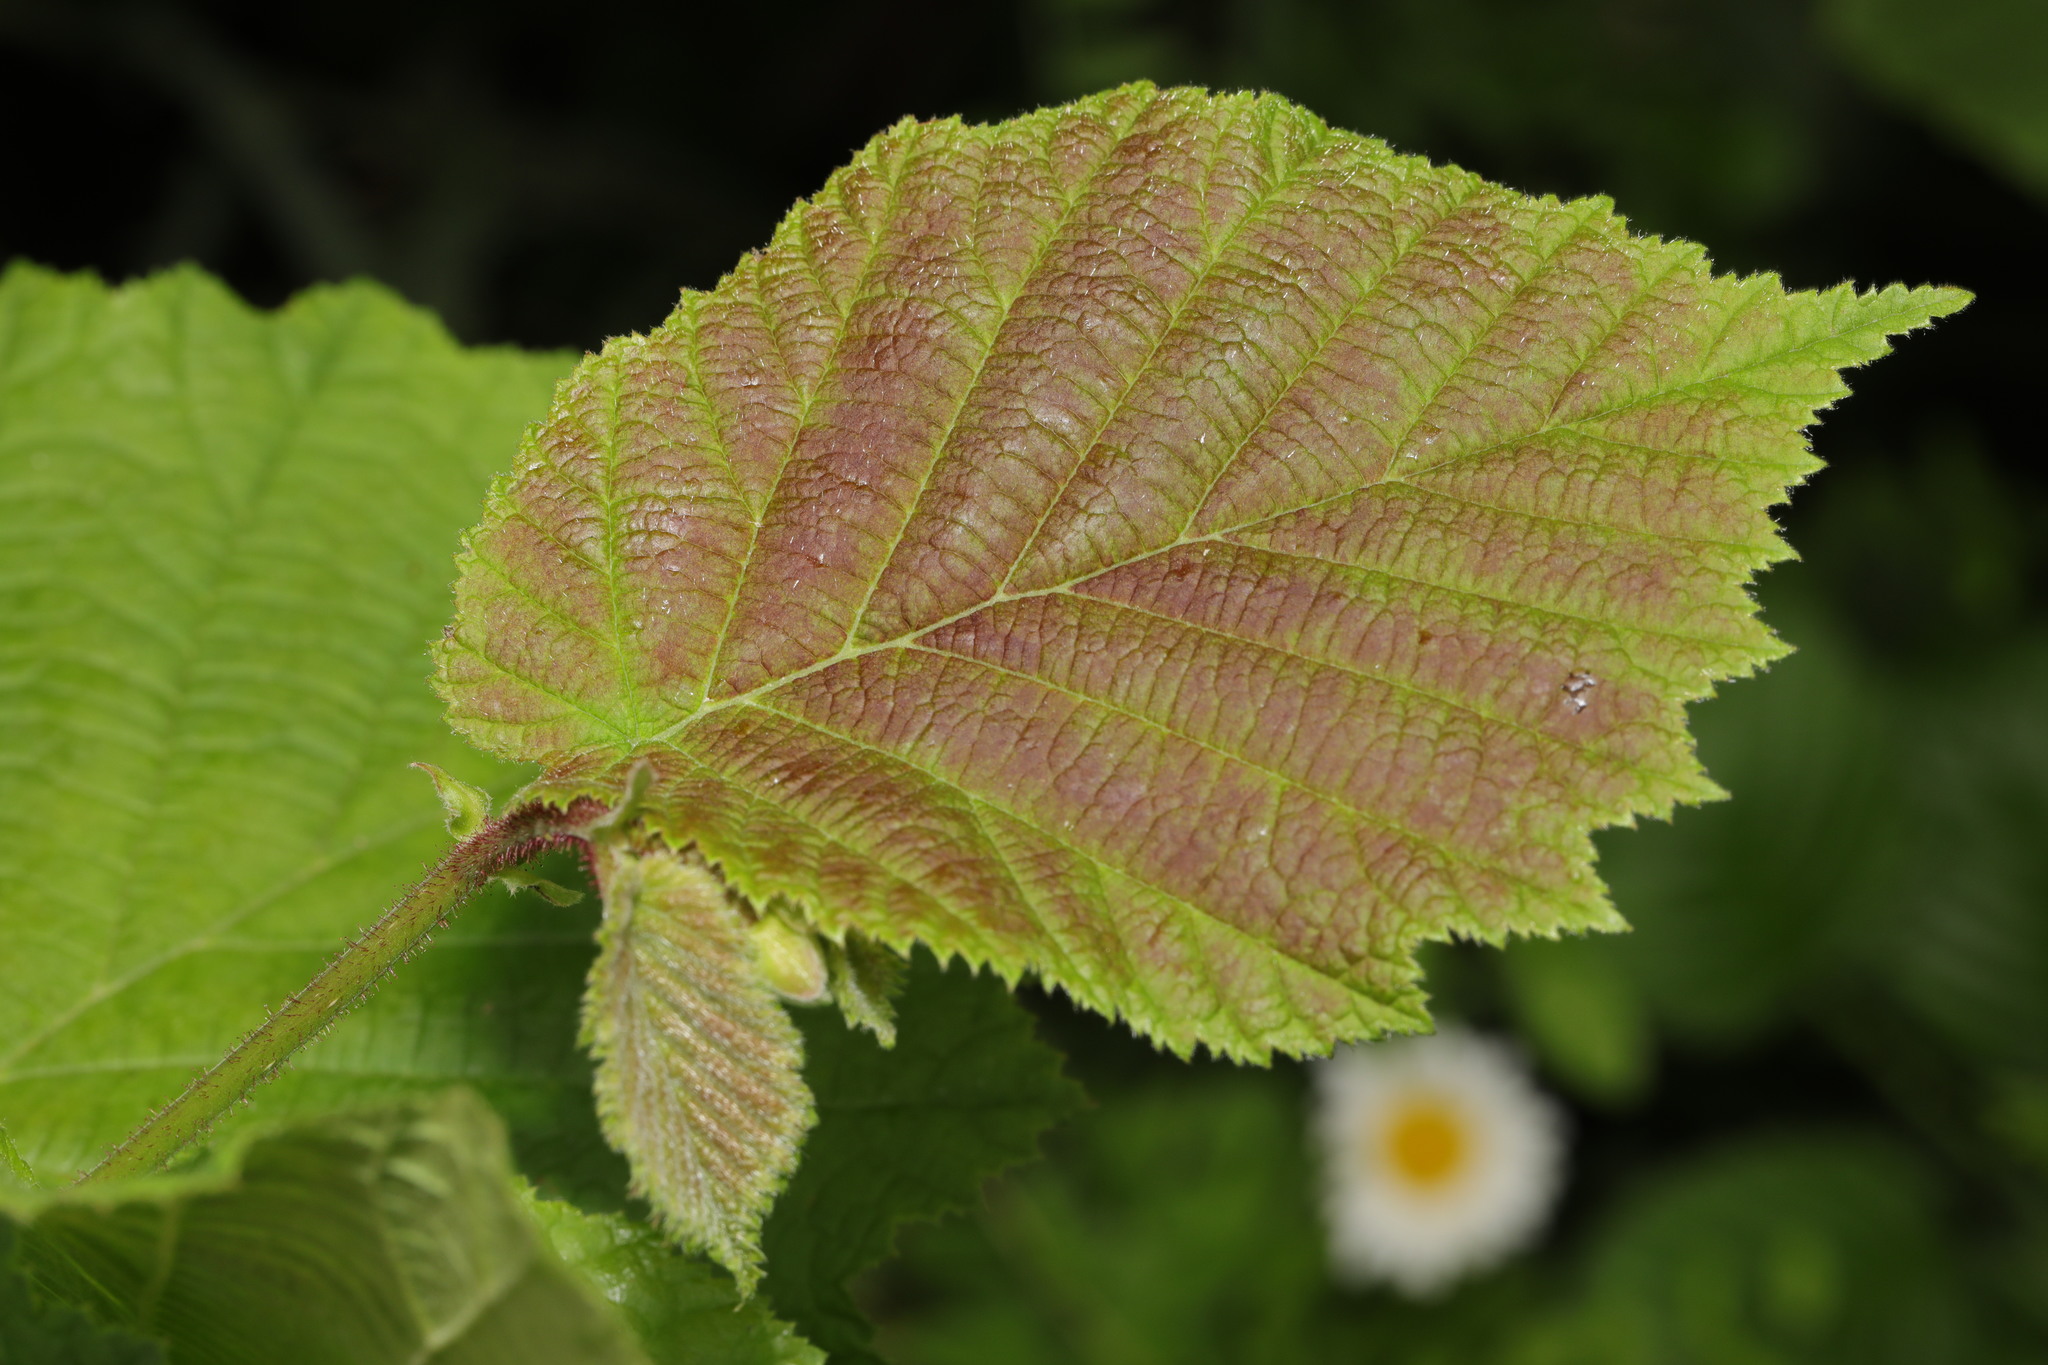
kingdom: Plantae
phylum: Tracheophyta
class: Magnoliopsida
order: Fagales
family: Betulaceae
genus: Corylus
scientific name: Corylus avellana
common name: European hazel
